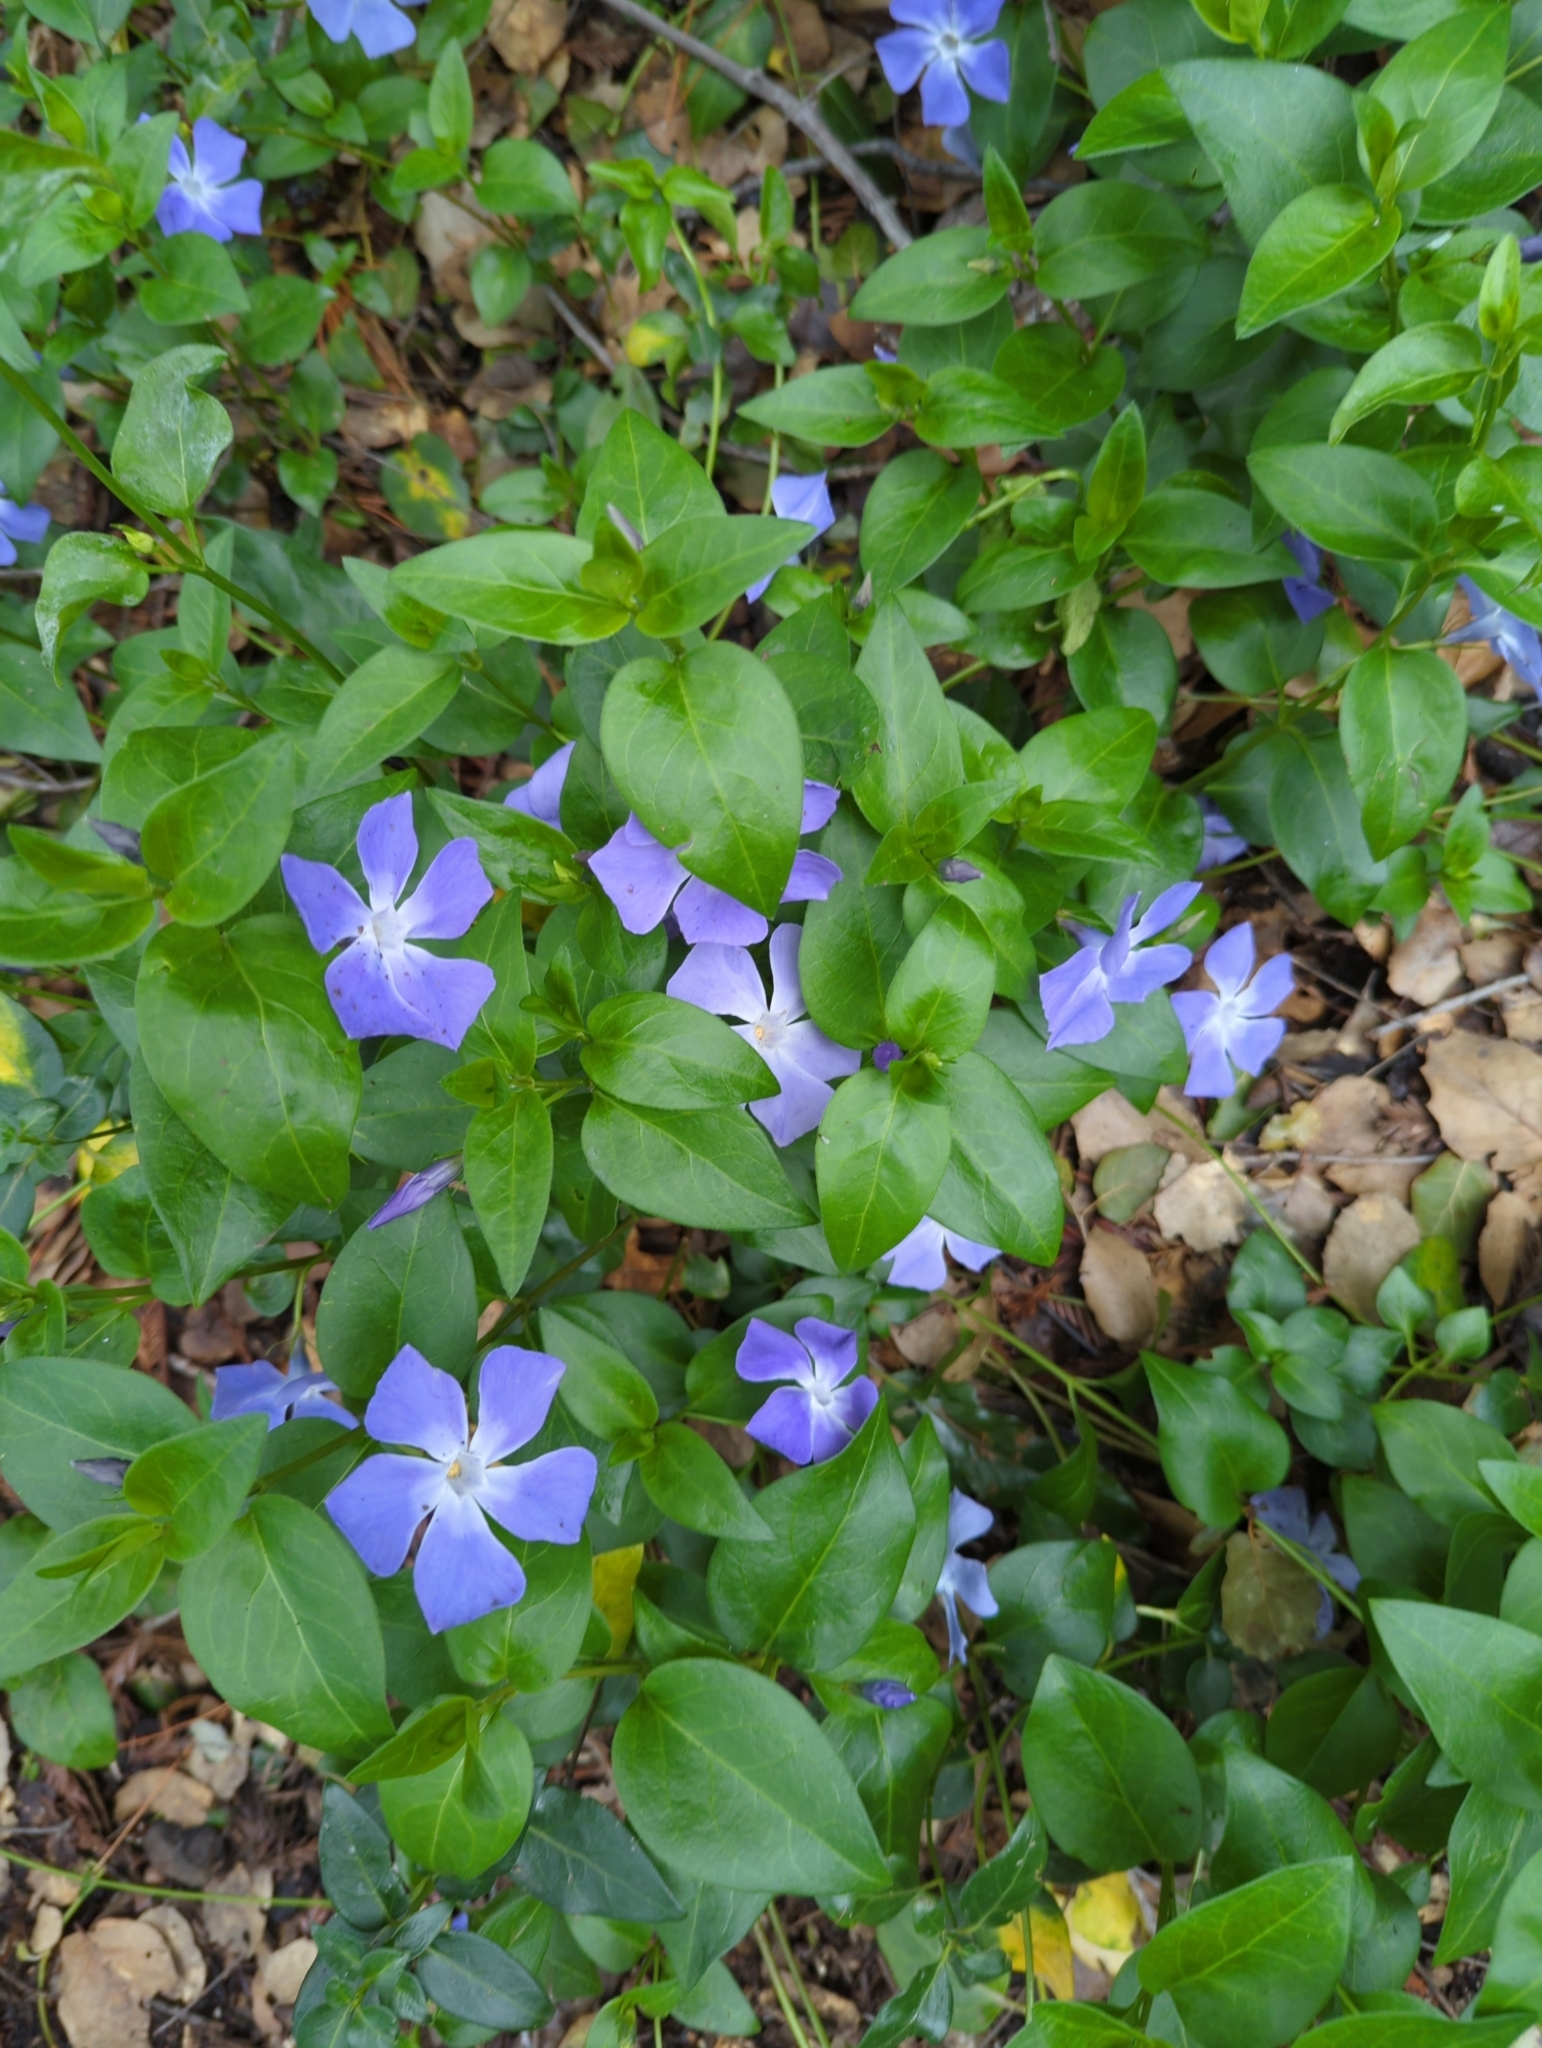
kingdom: Plantae
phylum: Tracheophyta
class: Magnoliopsida
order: Gentianales
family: Apocynaceae
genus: Vinca
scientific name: Vinca major
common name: Greater periwinkle
